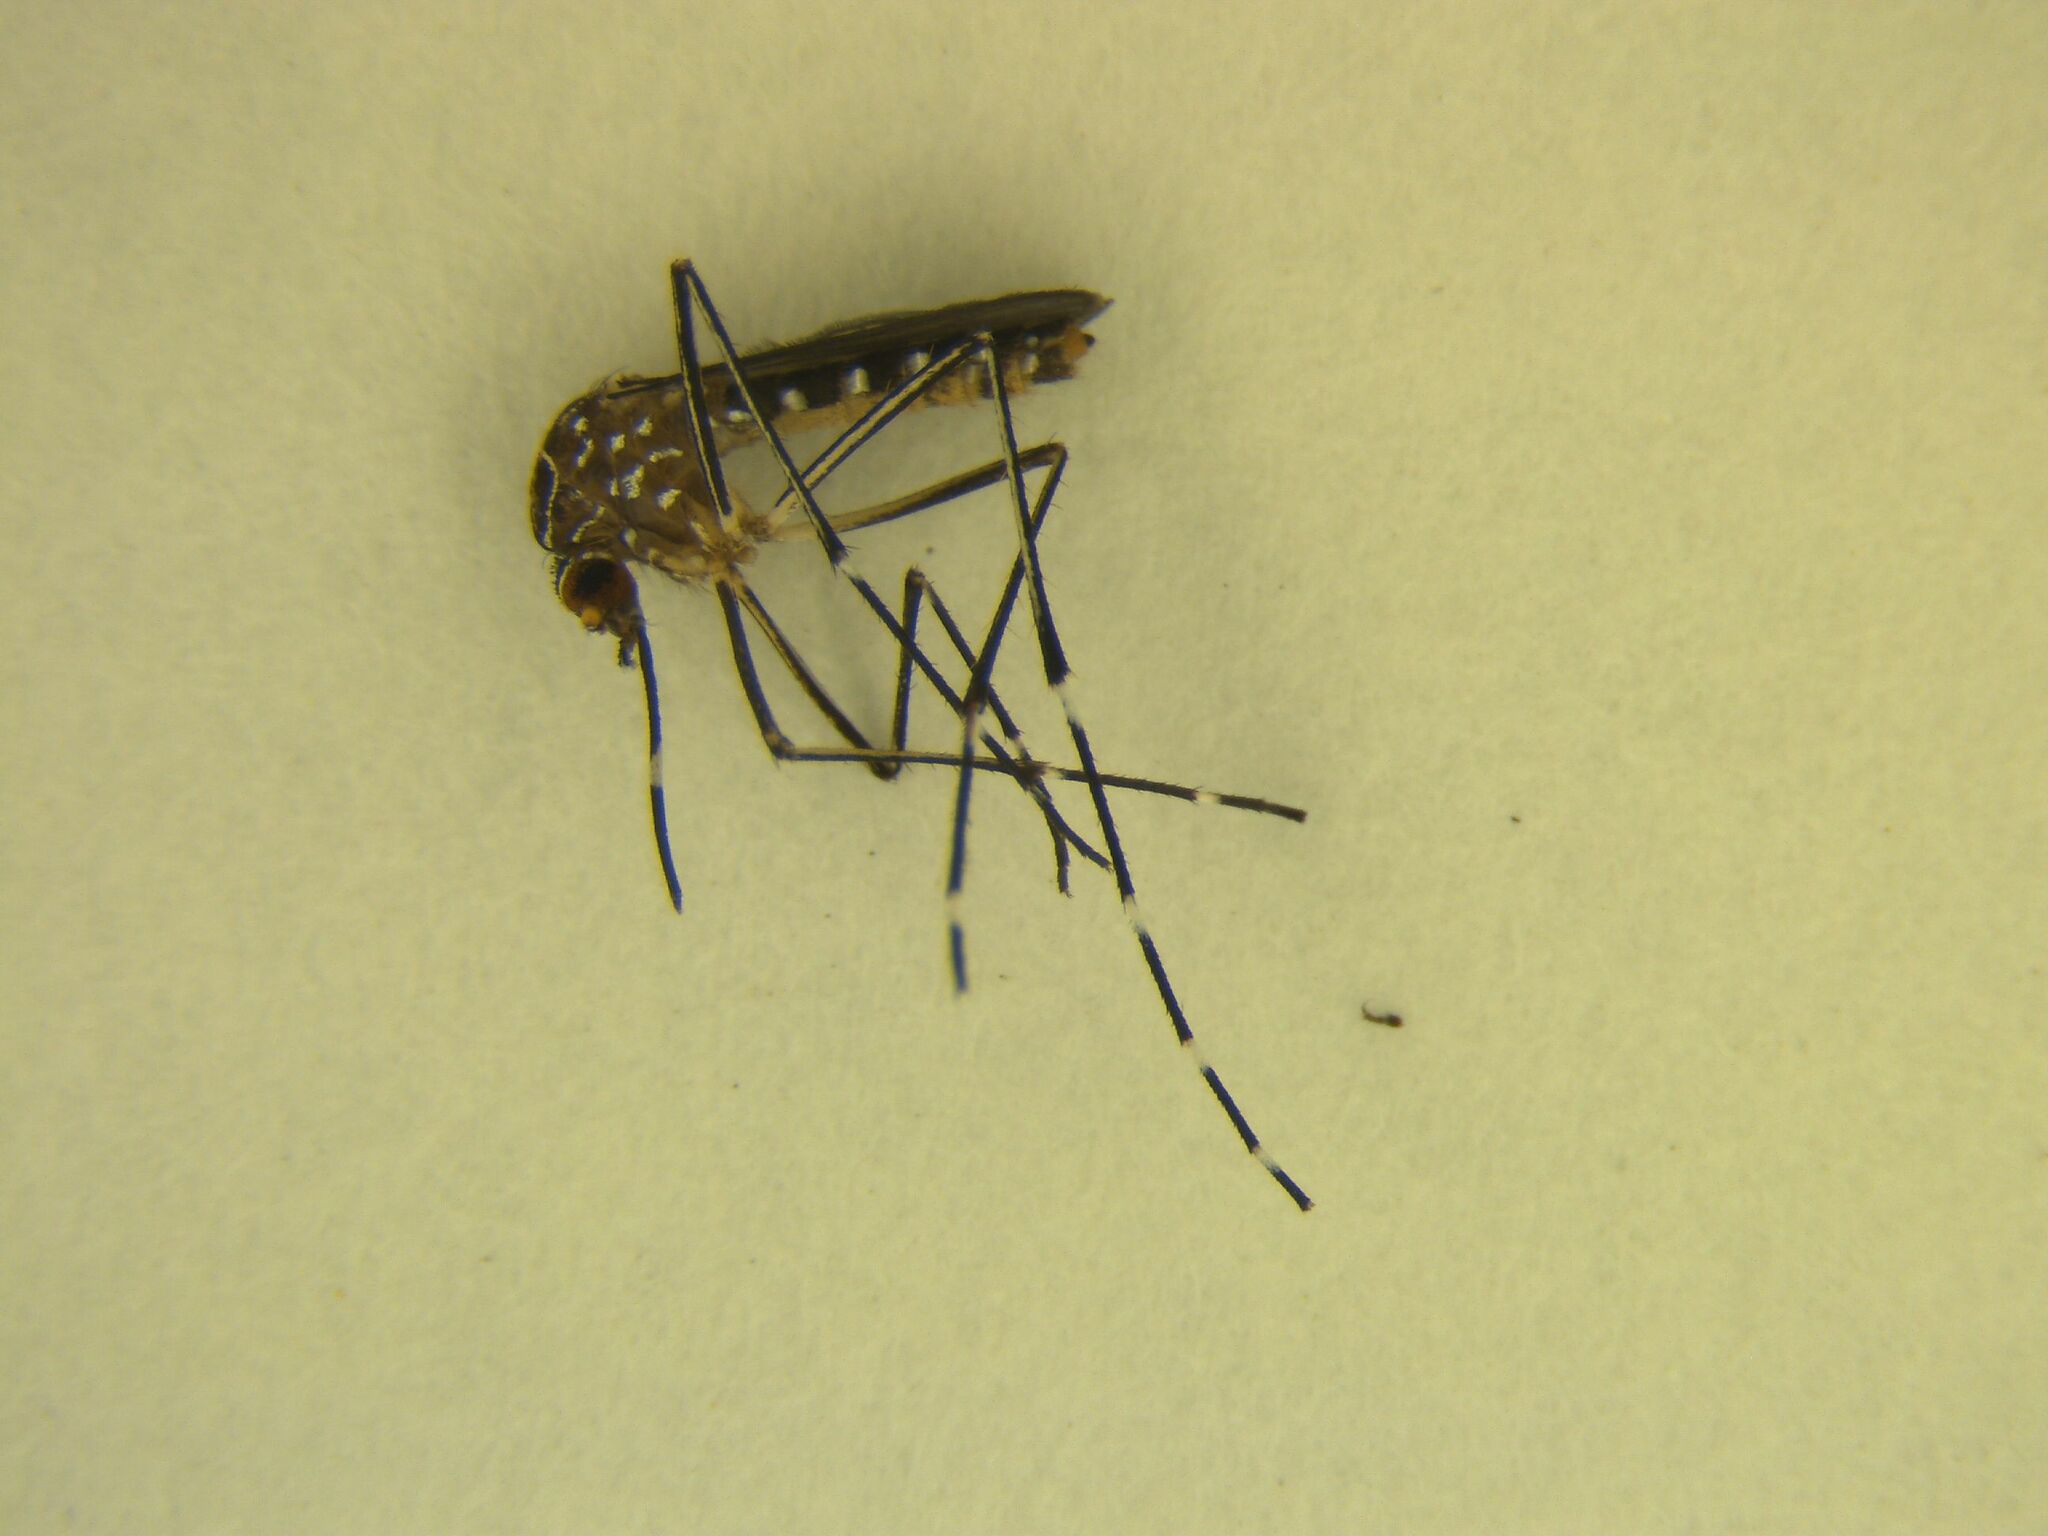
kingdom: Animalia
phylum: Arthropoda
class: Insecta
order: Diptera
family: Culicidae
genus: Aedes
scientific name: Aedes notoscriptus
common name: Australian backyard mosquito
